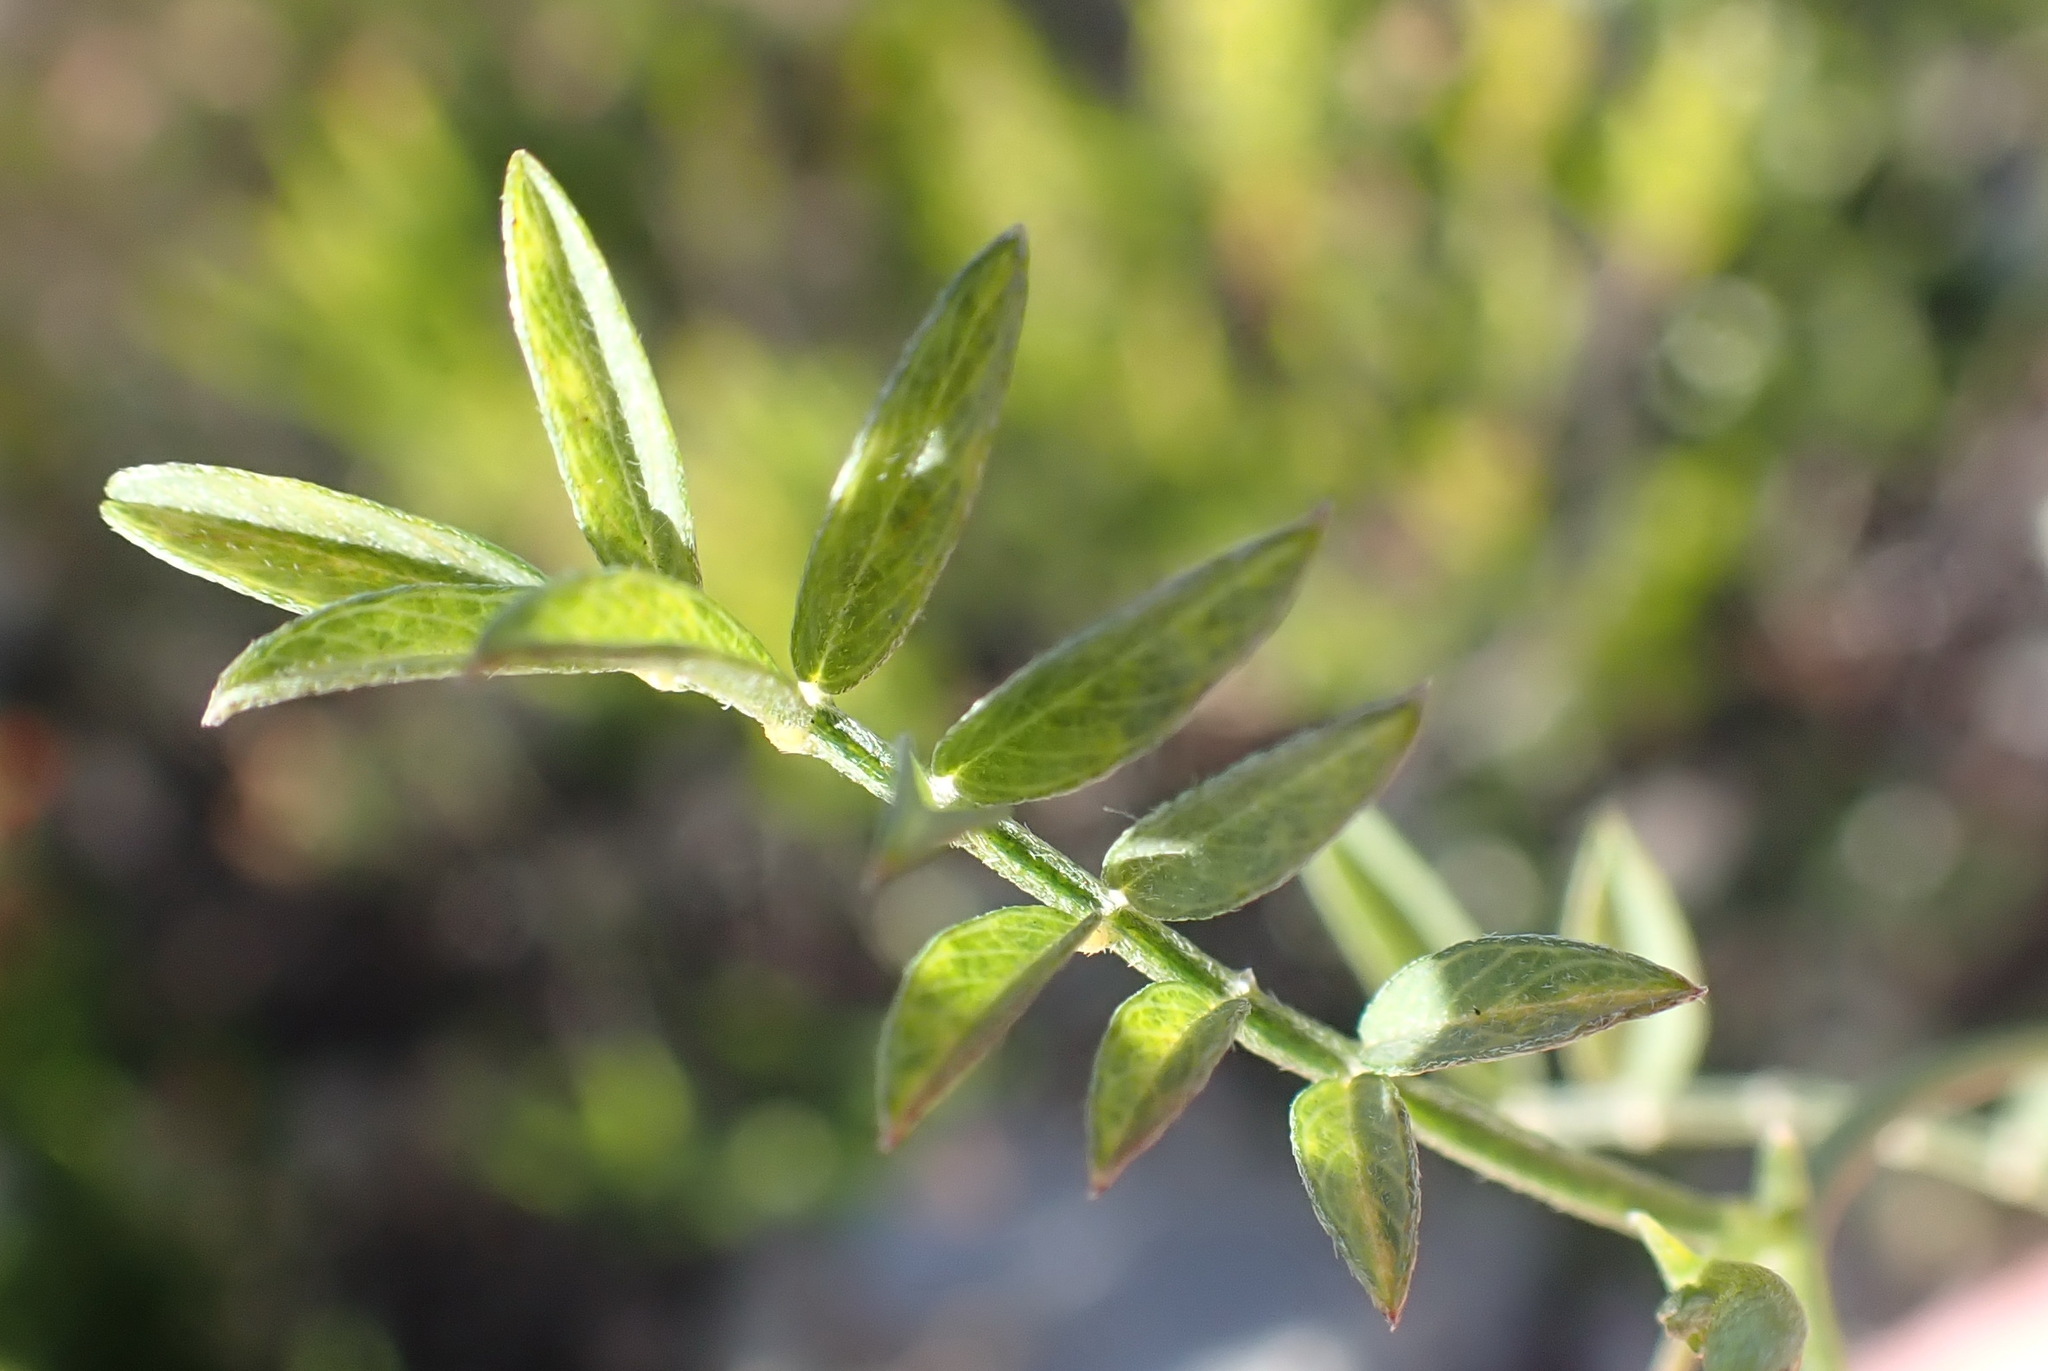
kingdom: Plantae
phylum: Tracheophyta
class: Magnoliopsida
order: Fabales
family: Fabaceae
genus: Tephrosia
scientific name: Tephrosia capensis
